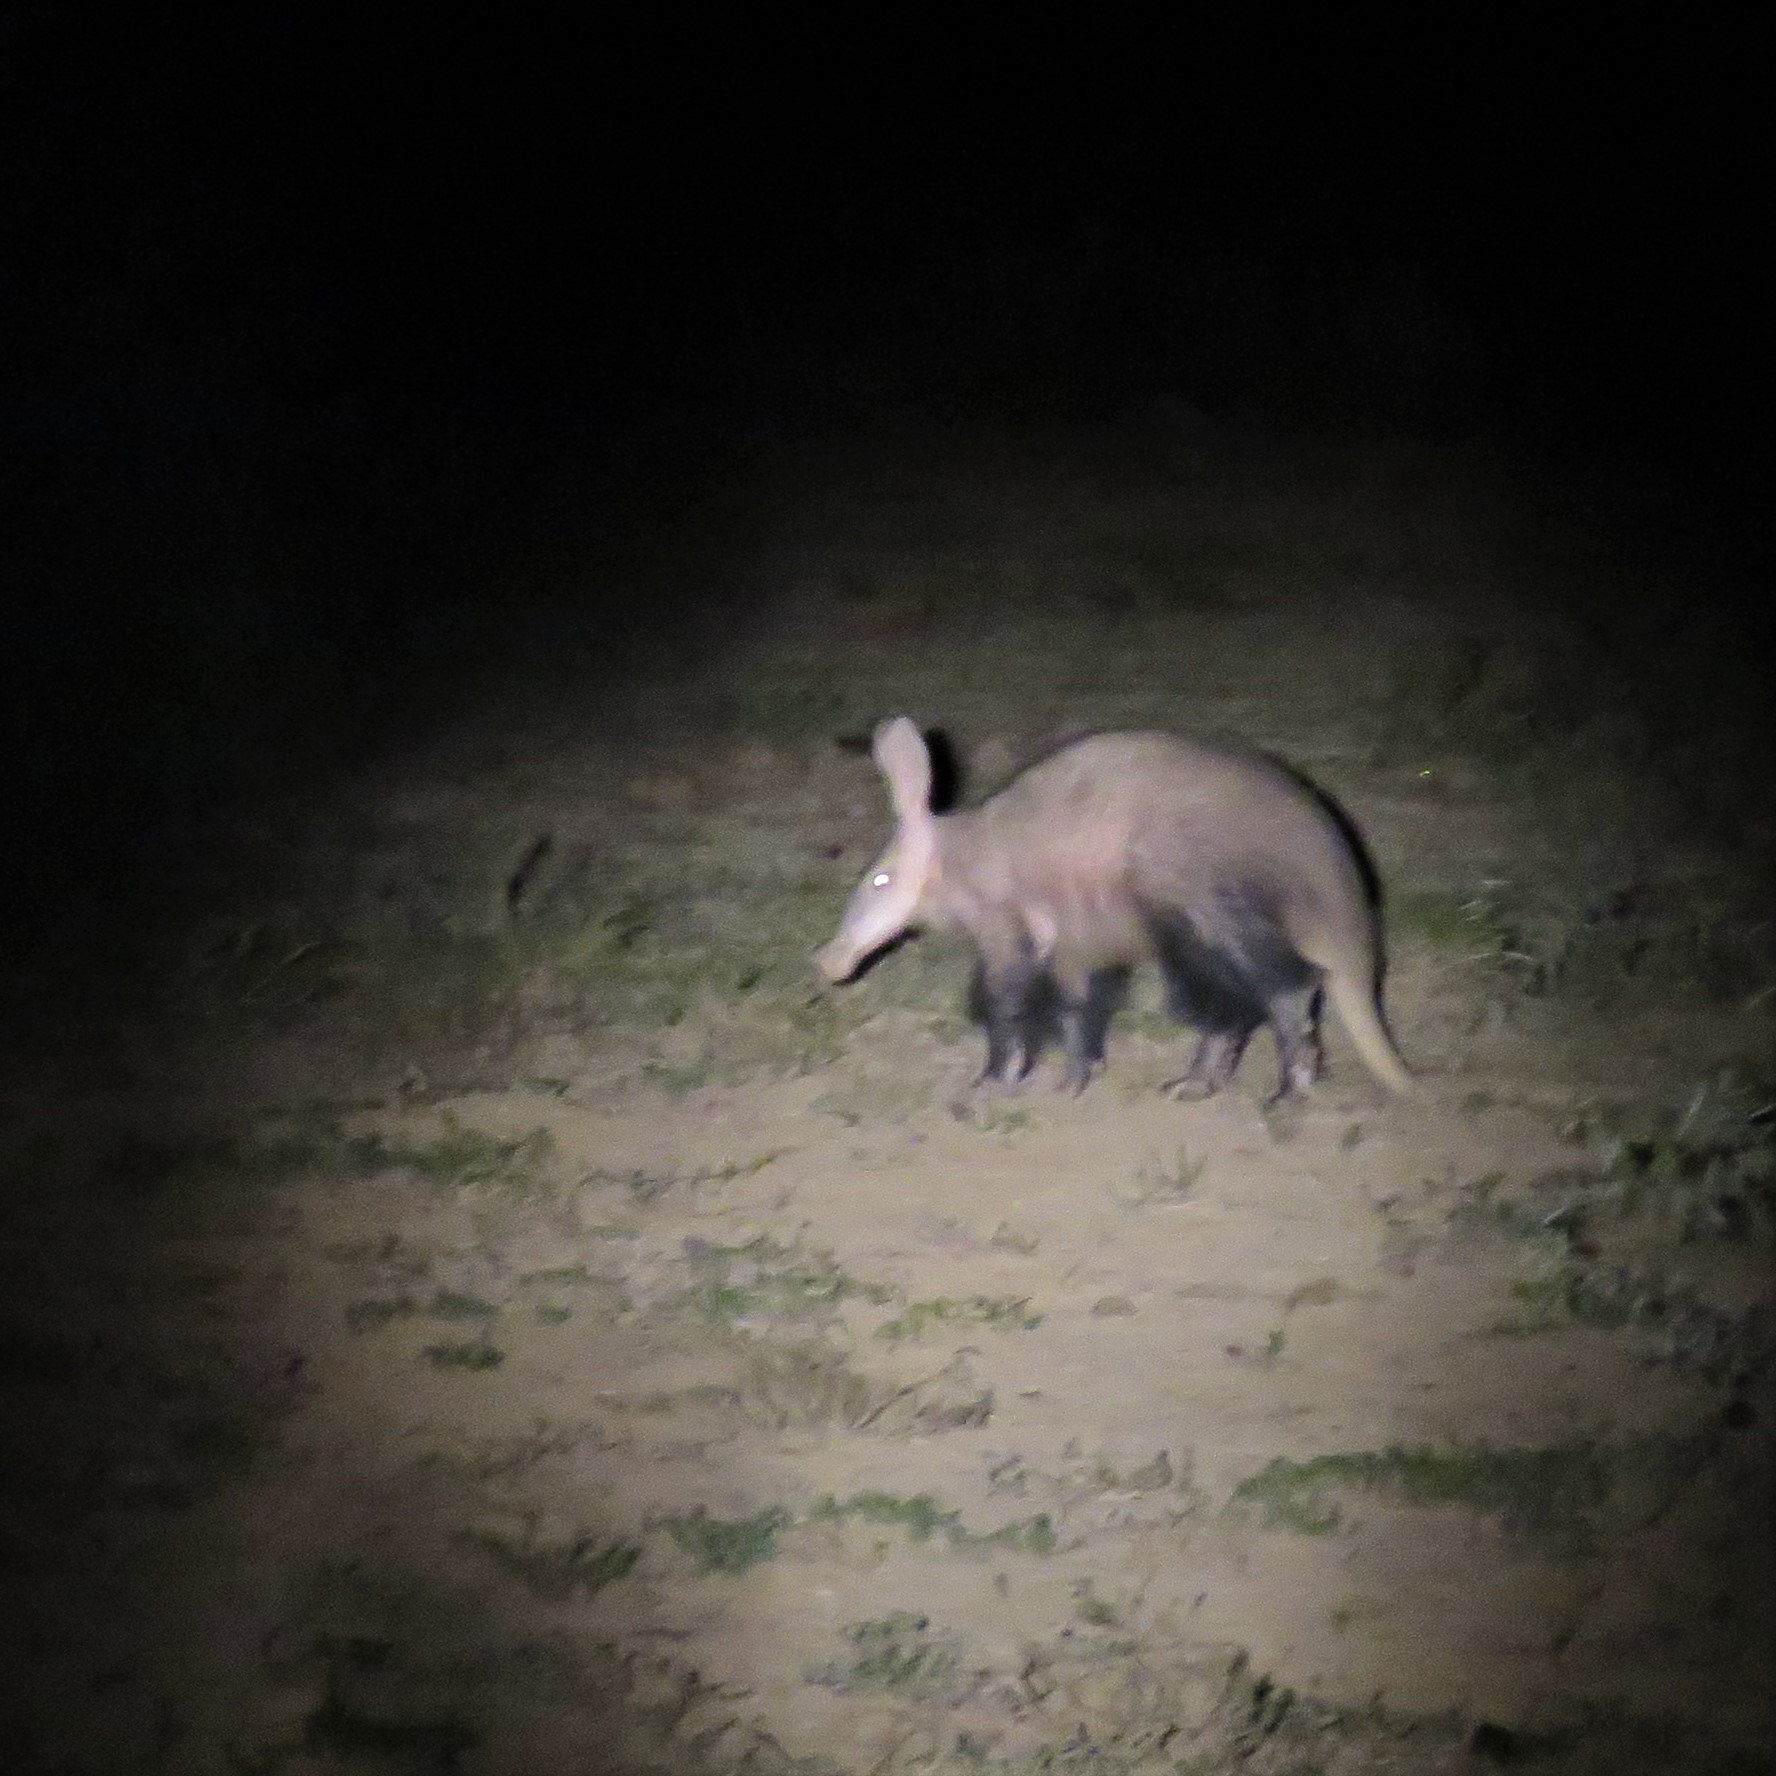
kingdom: Animalia
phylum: Chordata
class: Mammalia
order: Tubulidentata
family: Orycteropodidae
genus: Orycteropus
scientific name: Orycteropus afer
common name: Aardvark
